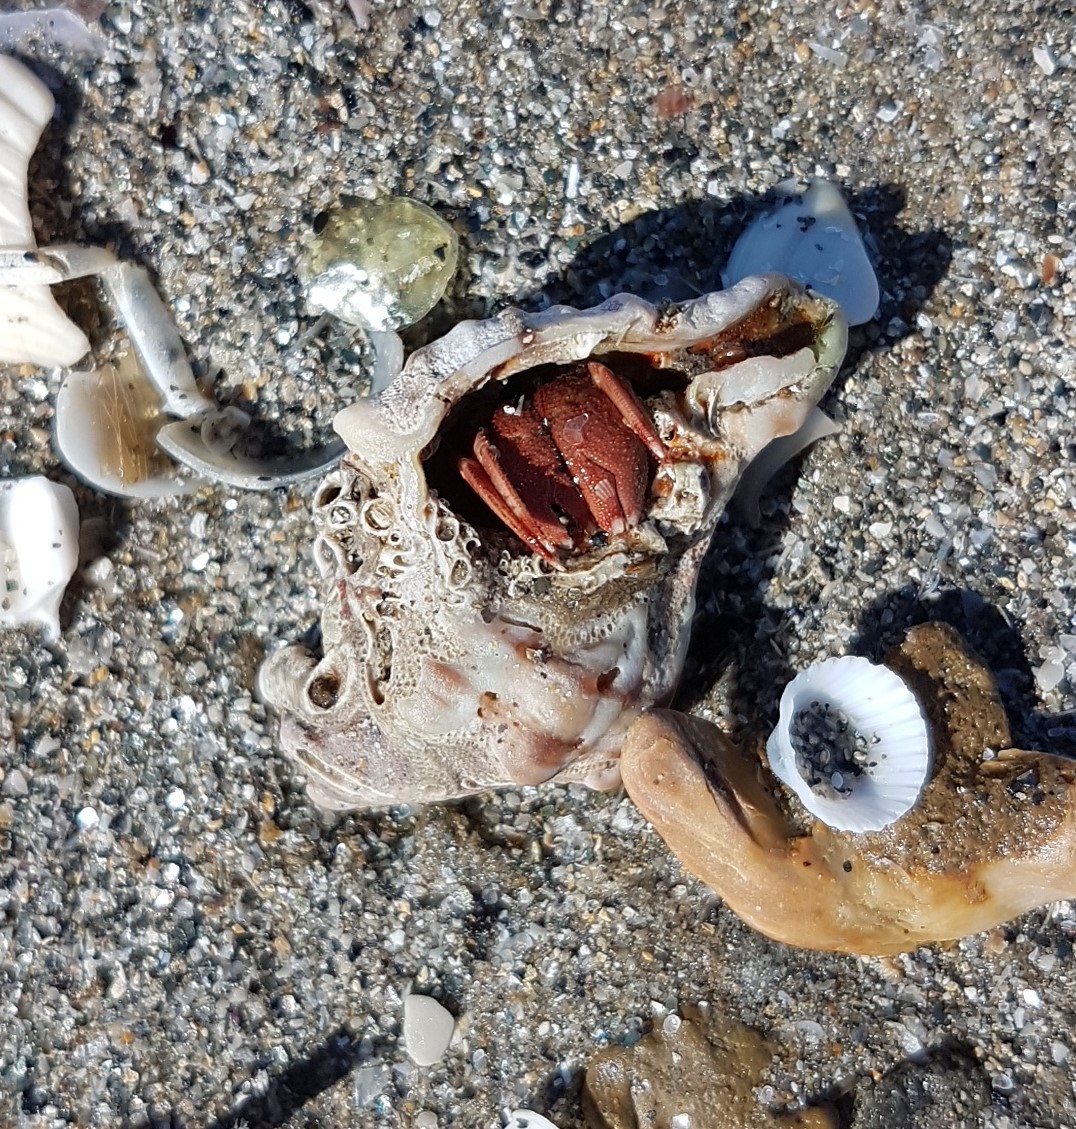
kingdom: Animalia
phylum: Mollusca
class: Gastropoda
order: Neogastropoda
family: Muricidae
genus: Hexaplex
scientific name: Hexaplex trunculus
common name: Banded dye-murex
